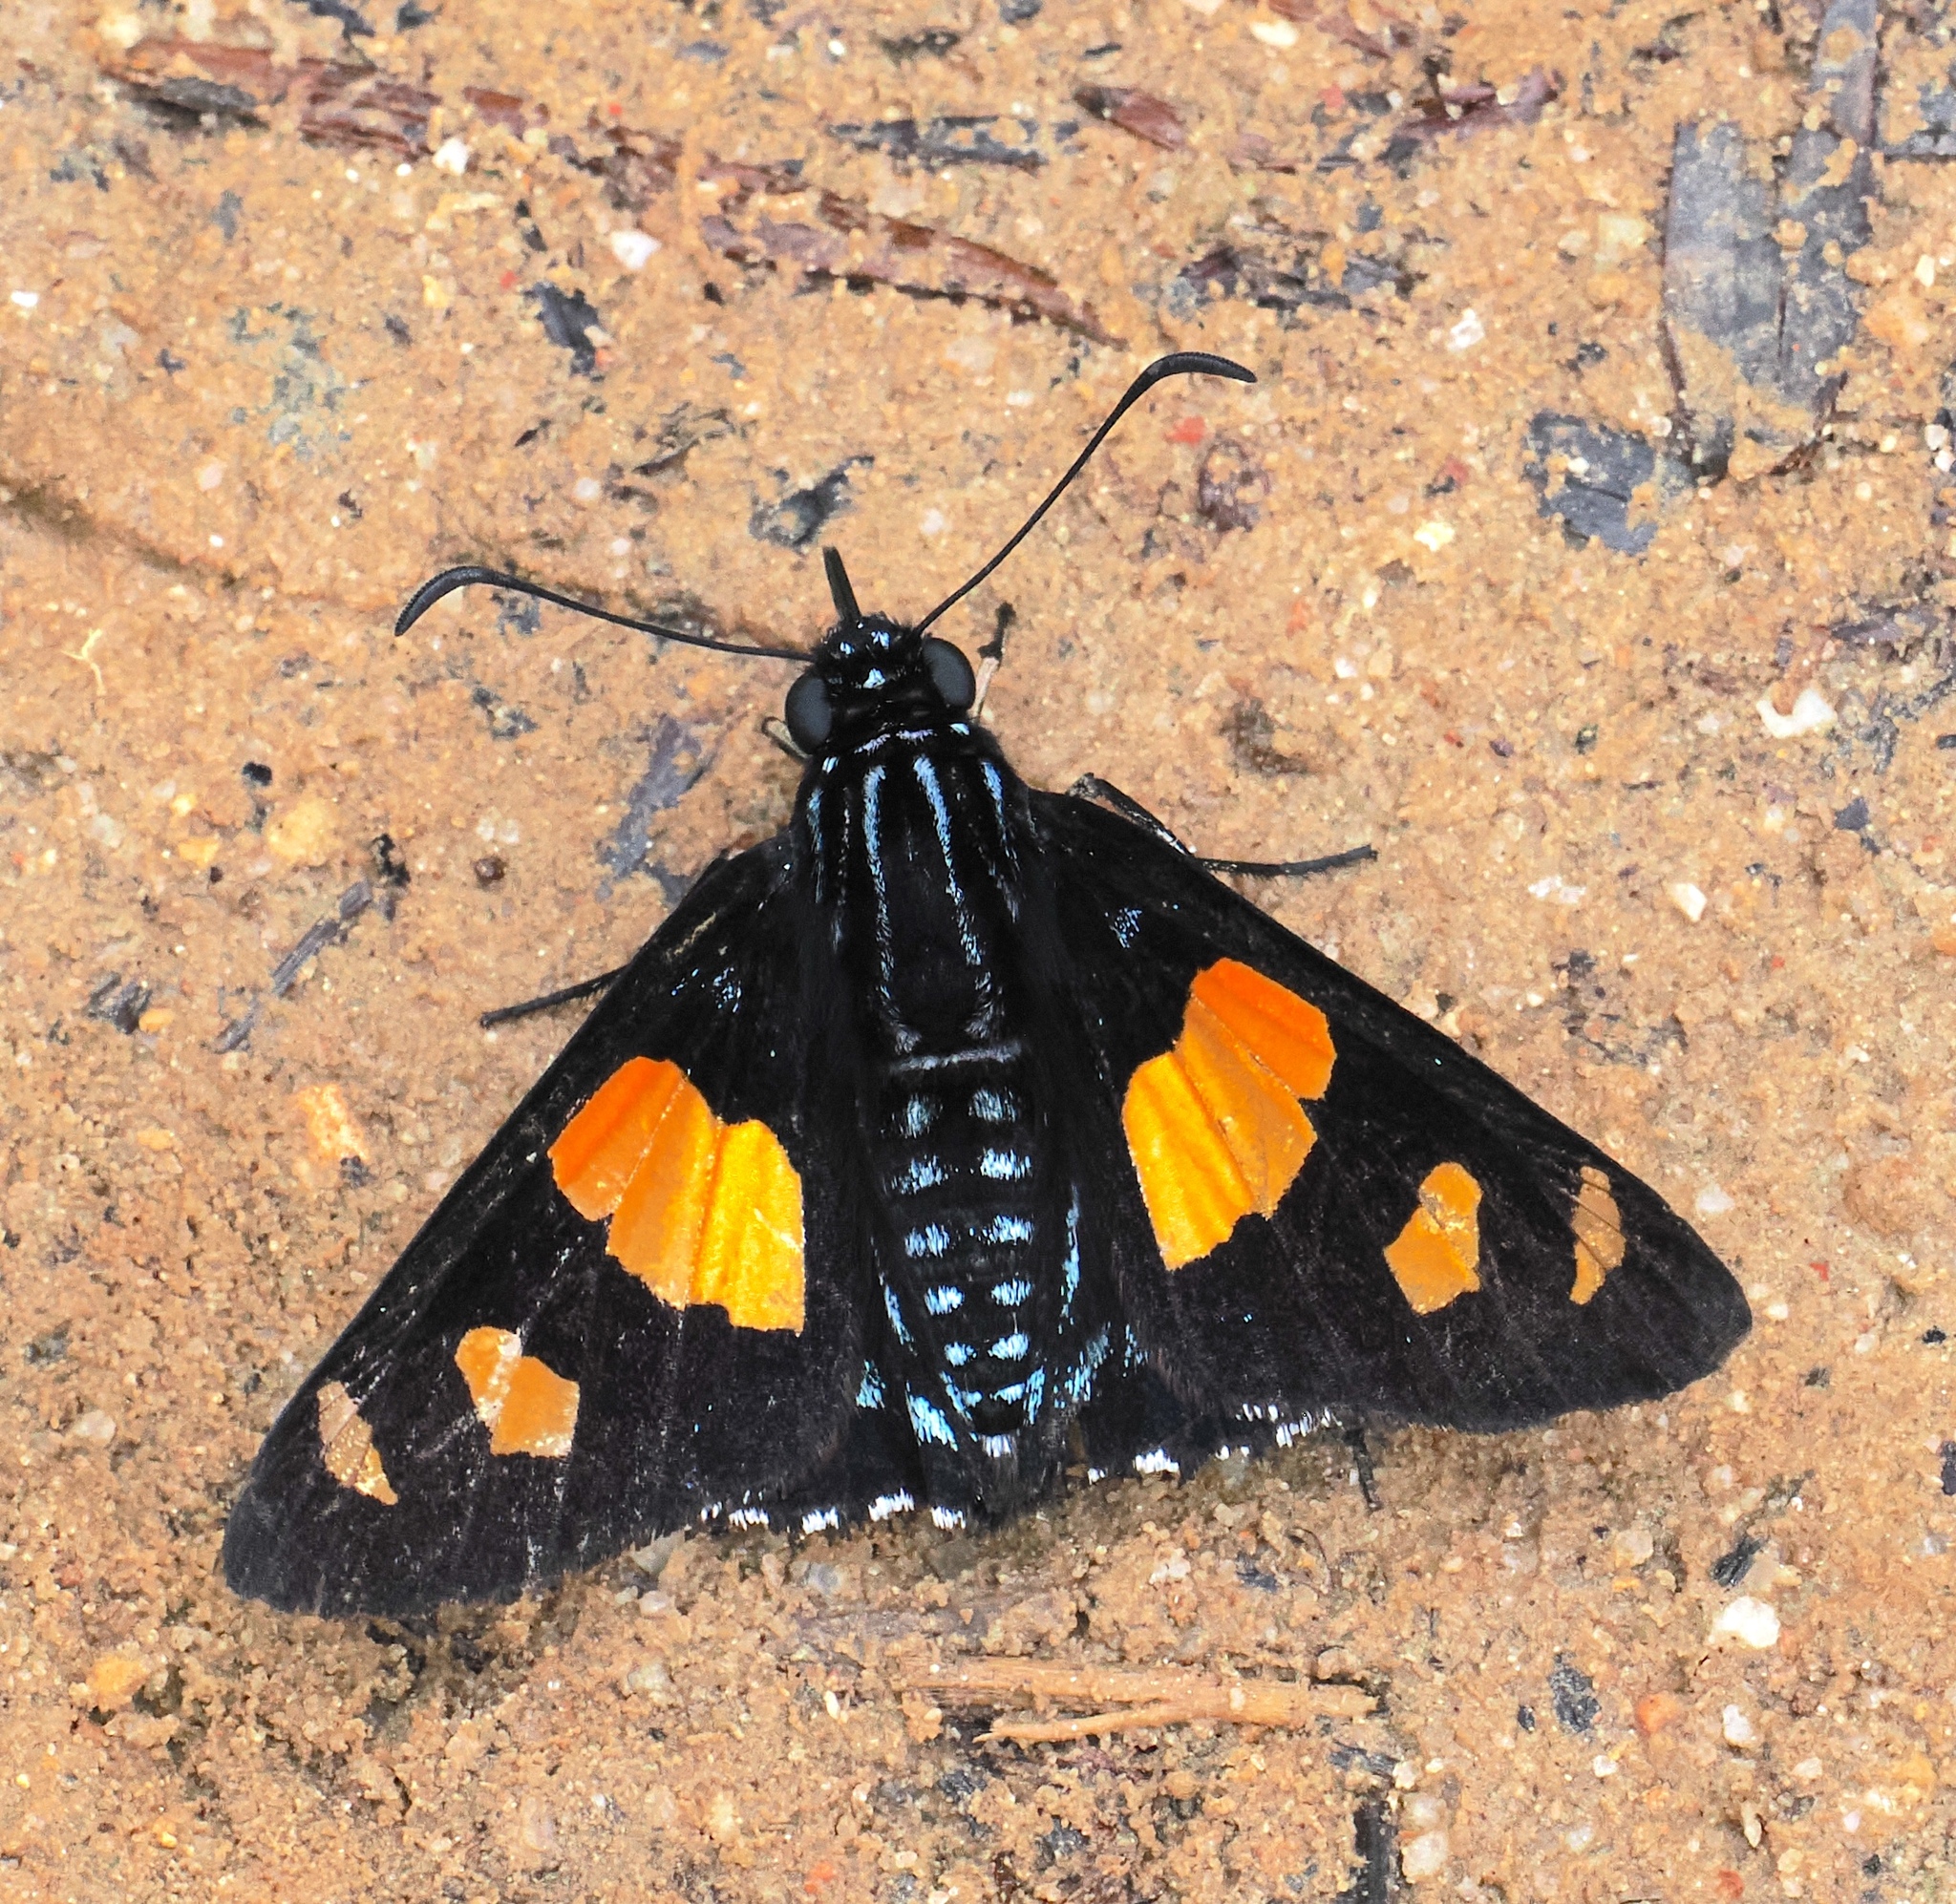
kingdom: Animalia
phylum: Arthropoda
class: Insecta
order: Lepidoptera
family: Hesperiidae
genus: Mimoniades
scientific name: Mimoniades ocyalus
